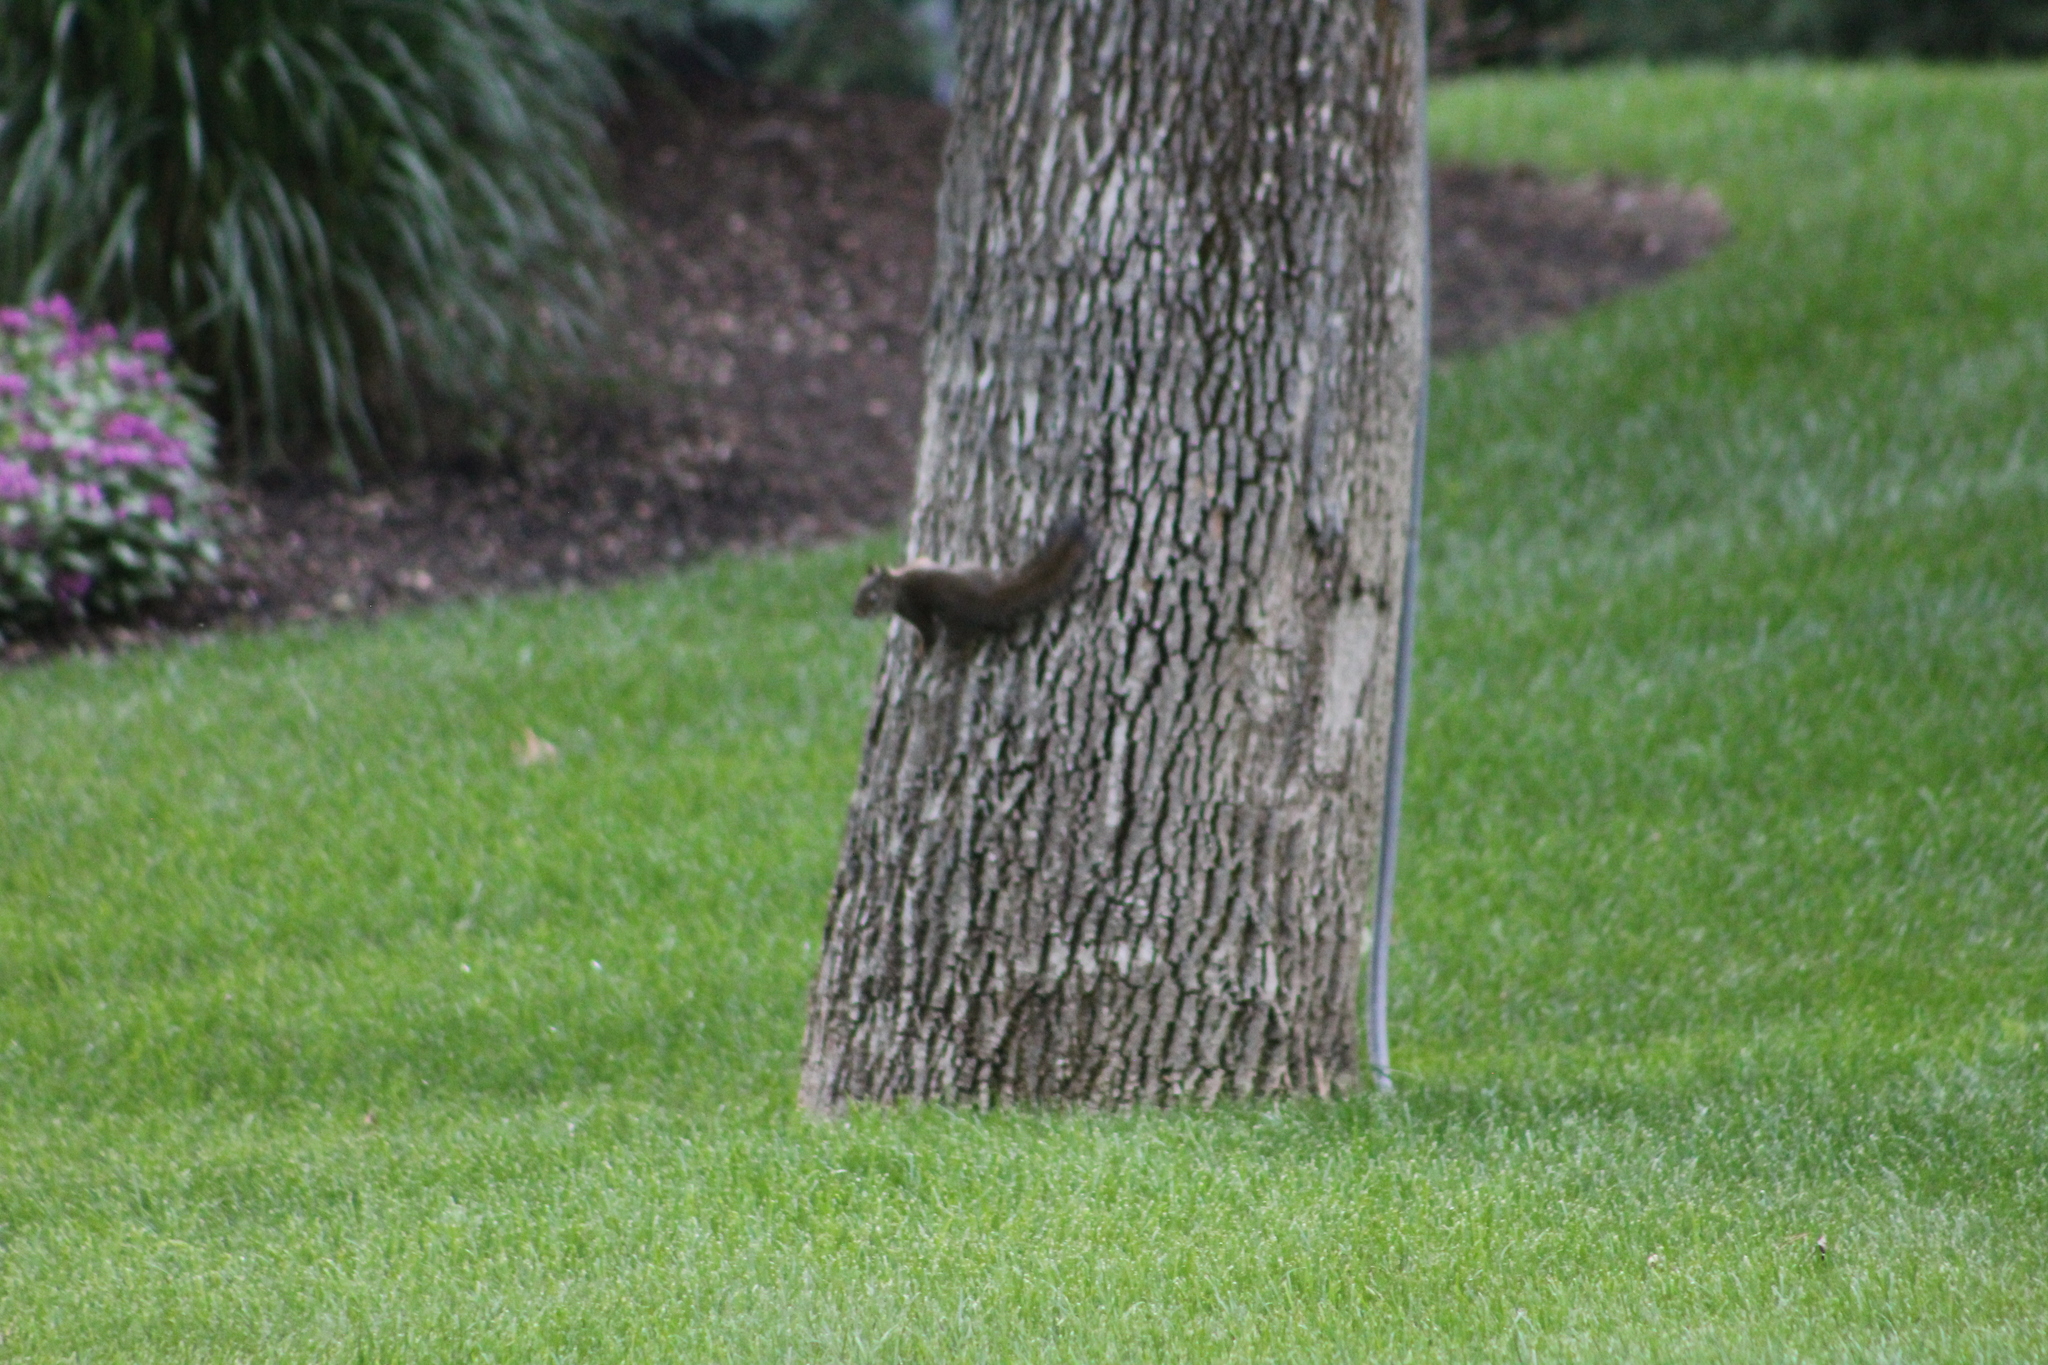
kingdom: Animalia
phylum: Chordata
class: Mammalia
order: Rodentia
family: Sciuridae
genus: Tamiasciurus
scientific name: Tamiasciurus hudsonicus
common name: Red squirrel
